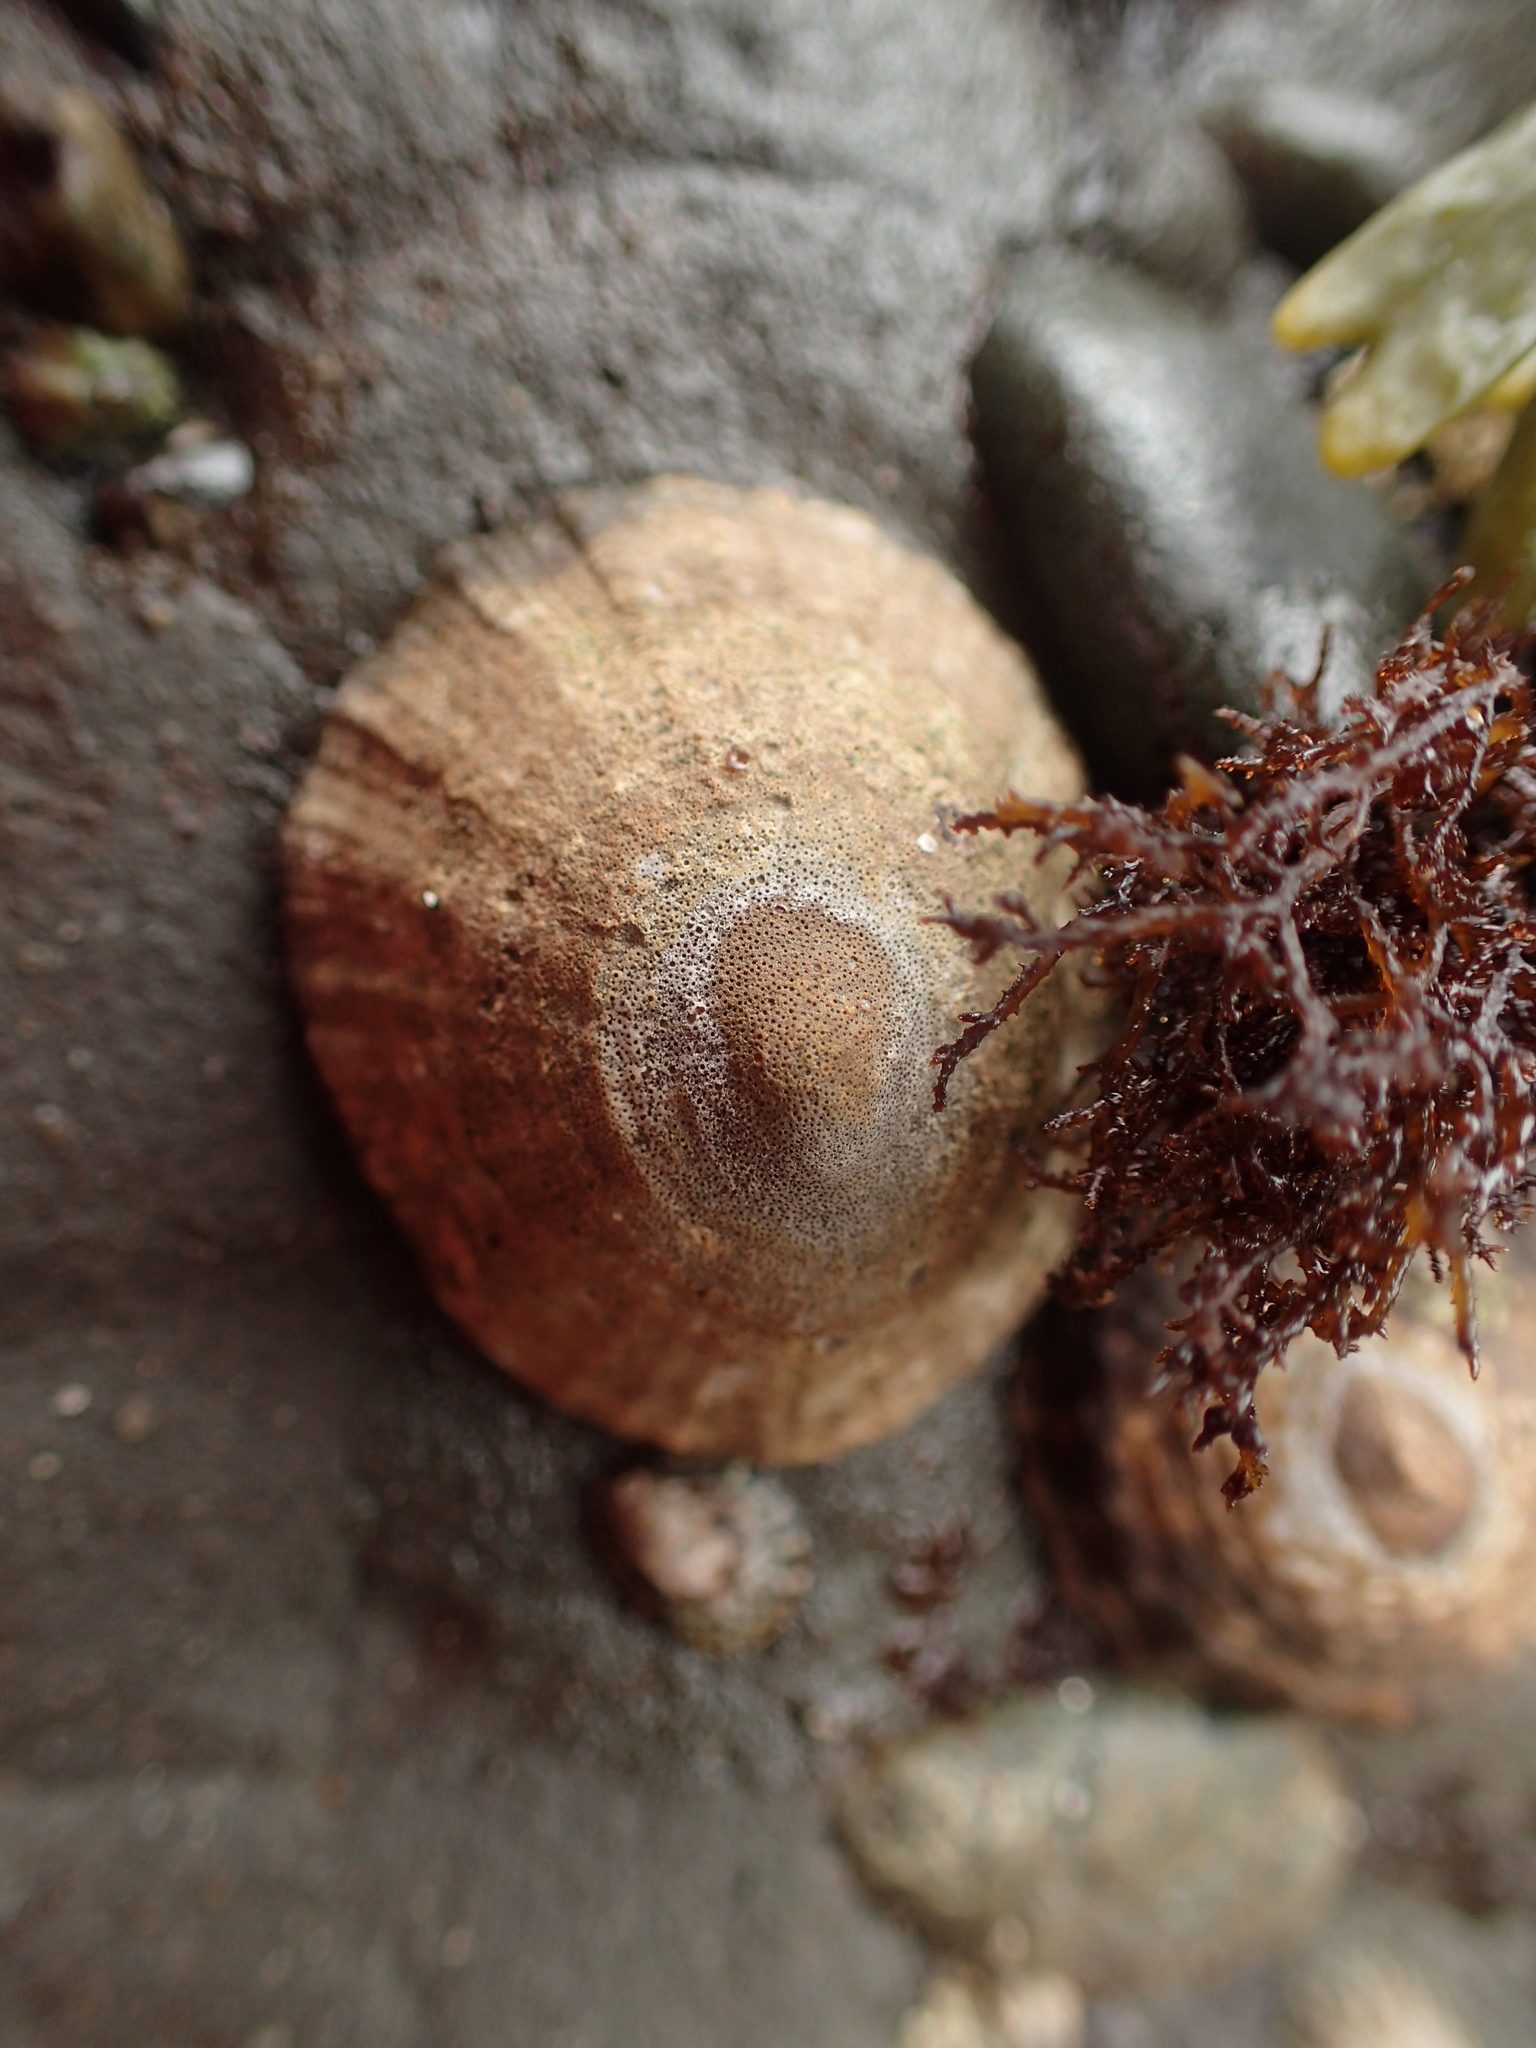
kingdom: Animalia
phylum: Mollusca
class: Gastropoda
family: Lottiidae
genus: Lottia
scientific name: Lottia limatula
